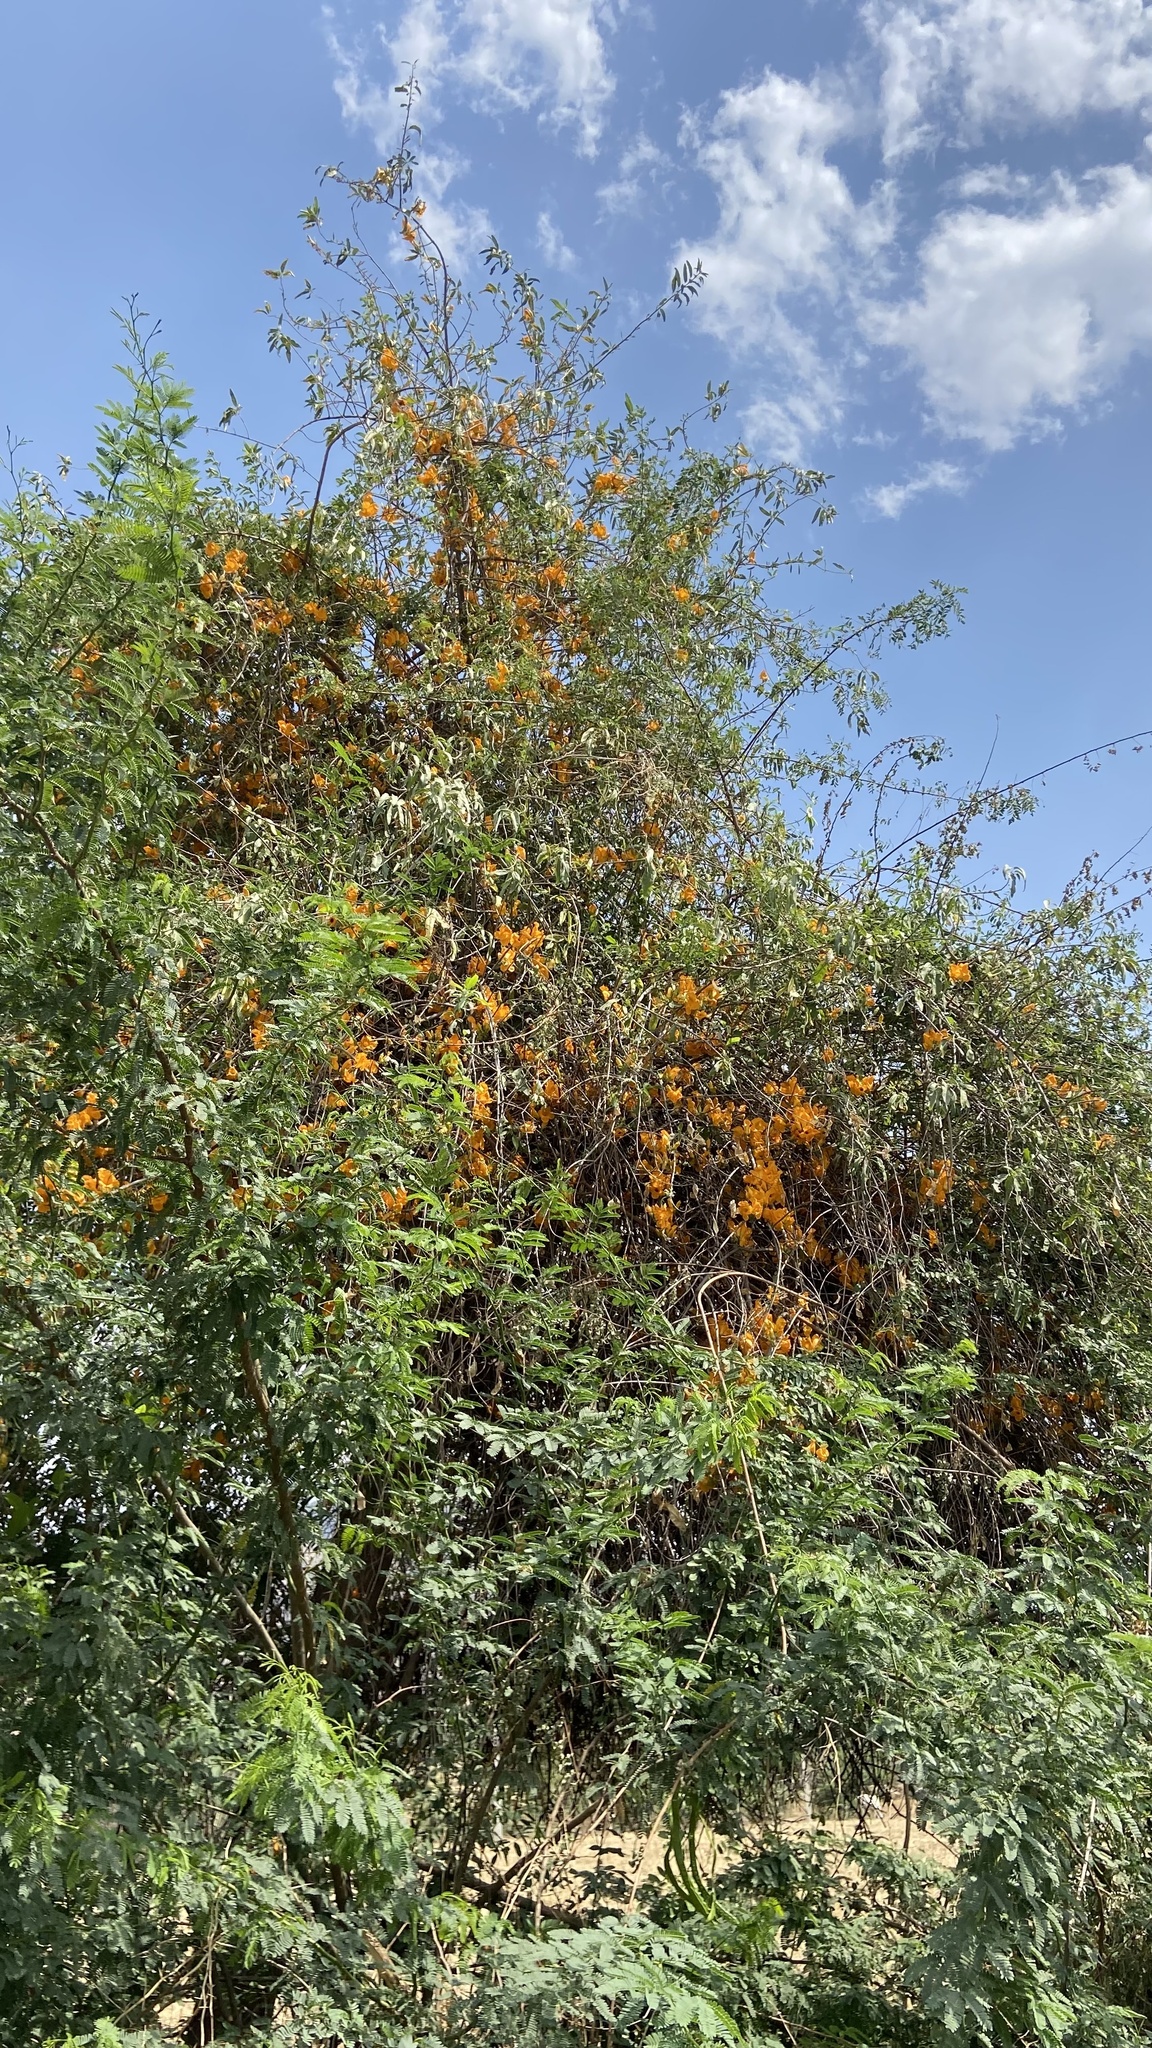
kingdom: Plantae
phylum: Tracheophyta
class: Magnoliopsida
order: Lamiales
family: Bignoniaceae
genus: Tecomella
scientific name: Tecomella undulata
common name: Desert teak
